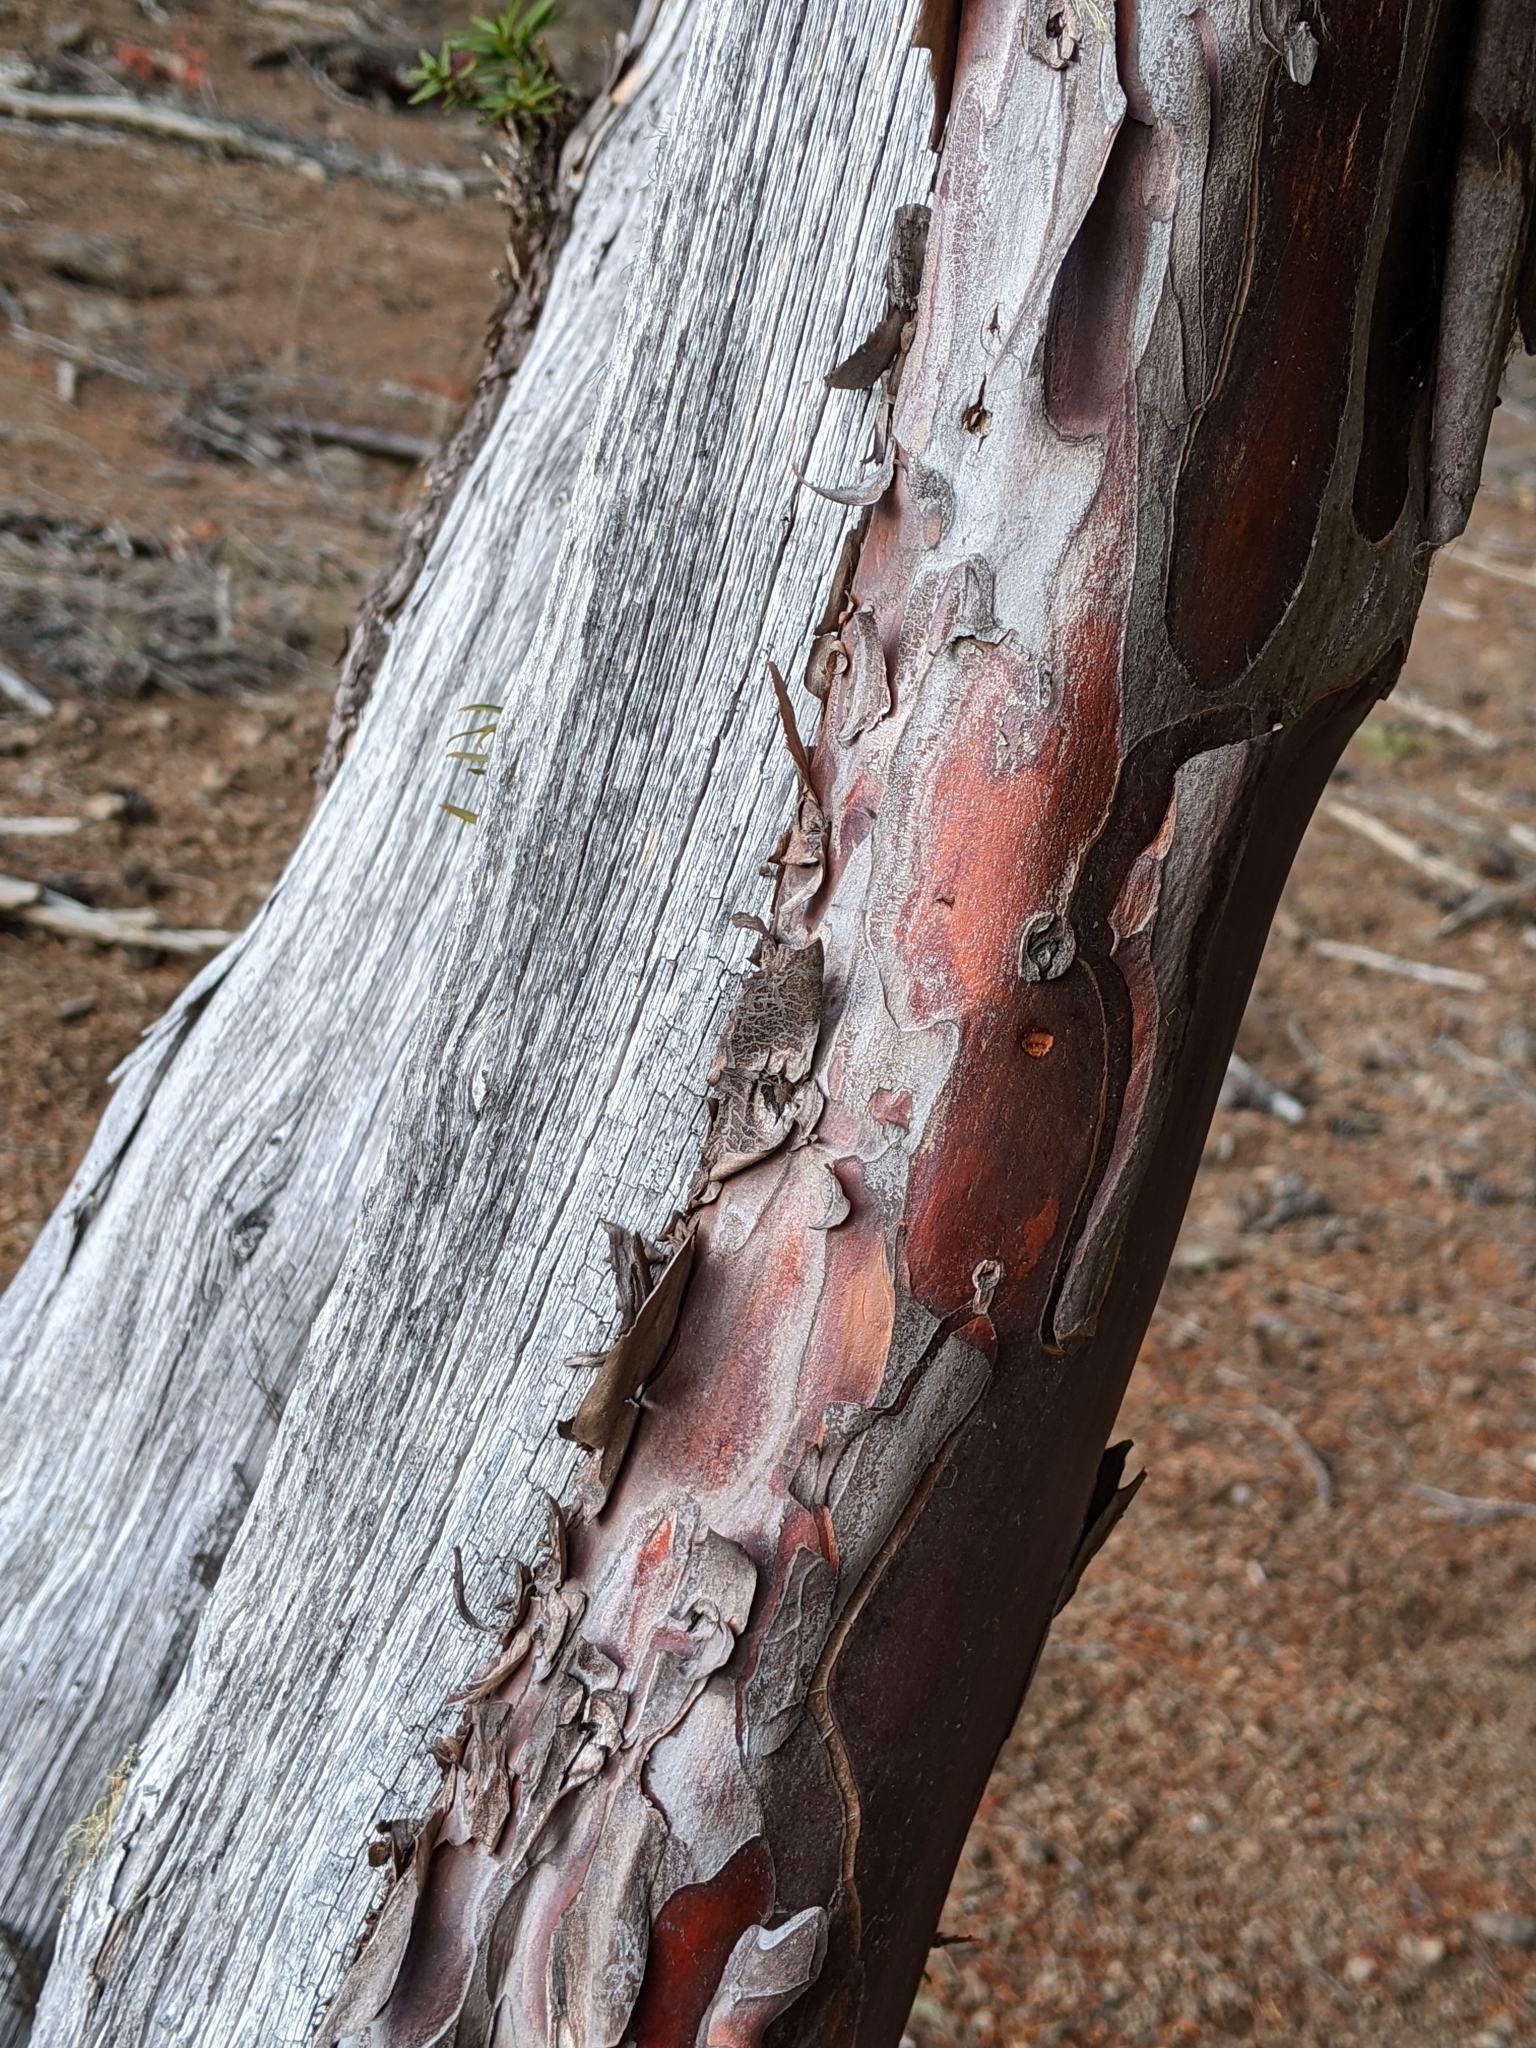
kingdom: Plantae
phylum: Tracheophyta
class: Pinopsida
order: Pinales
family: Taxaceae
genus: Taxus
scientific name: Taxus brevifolia
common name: Pacific yew
